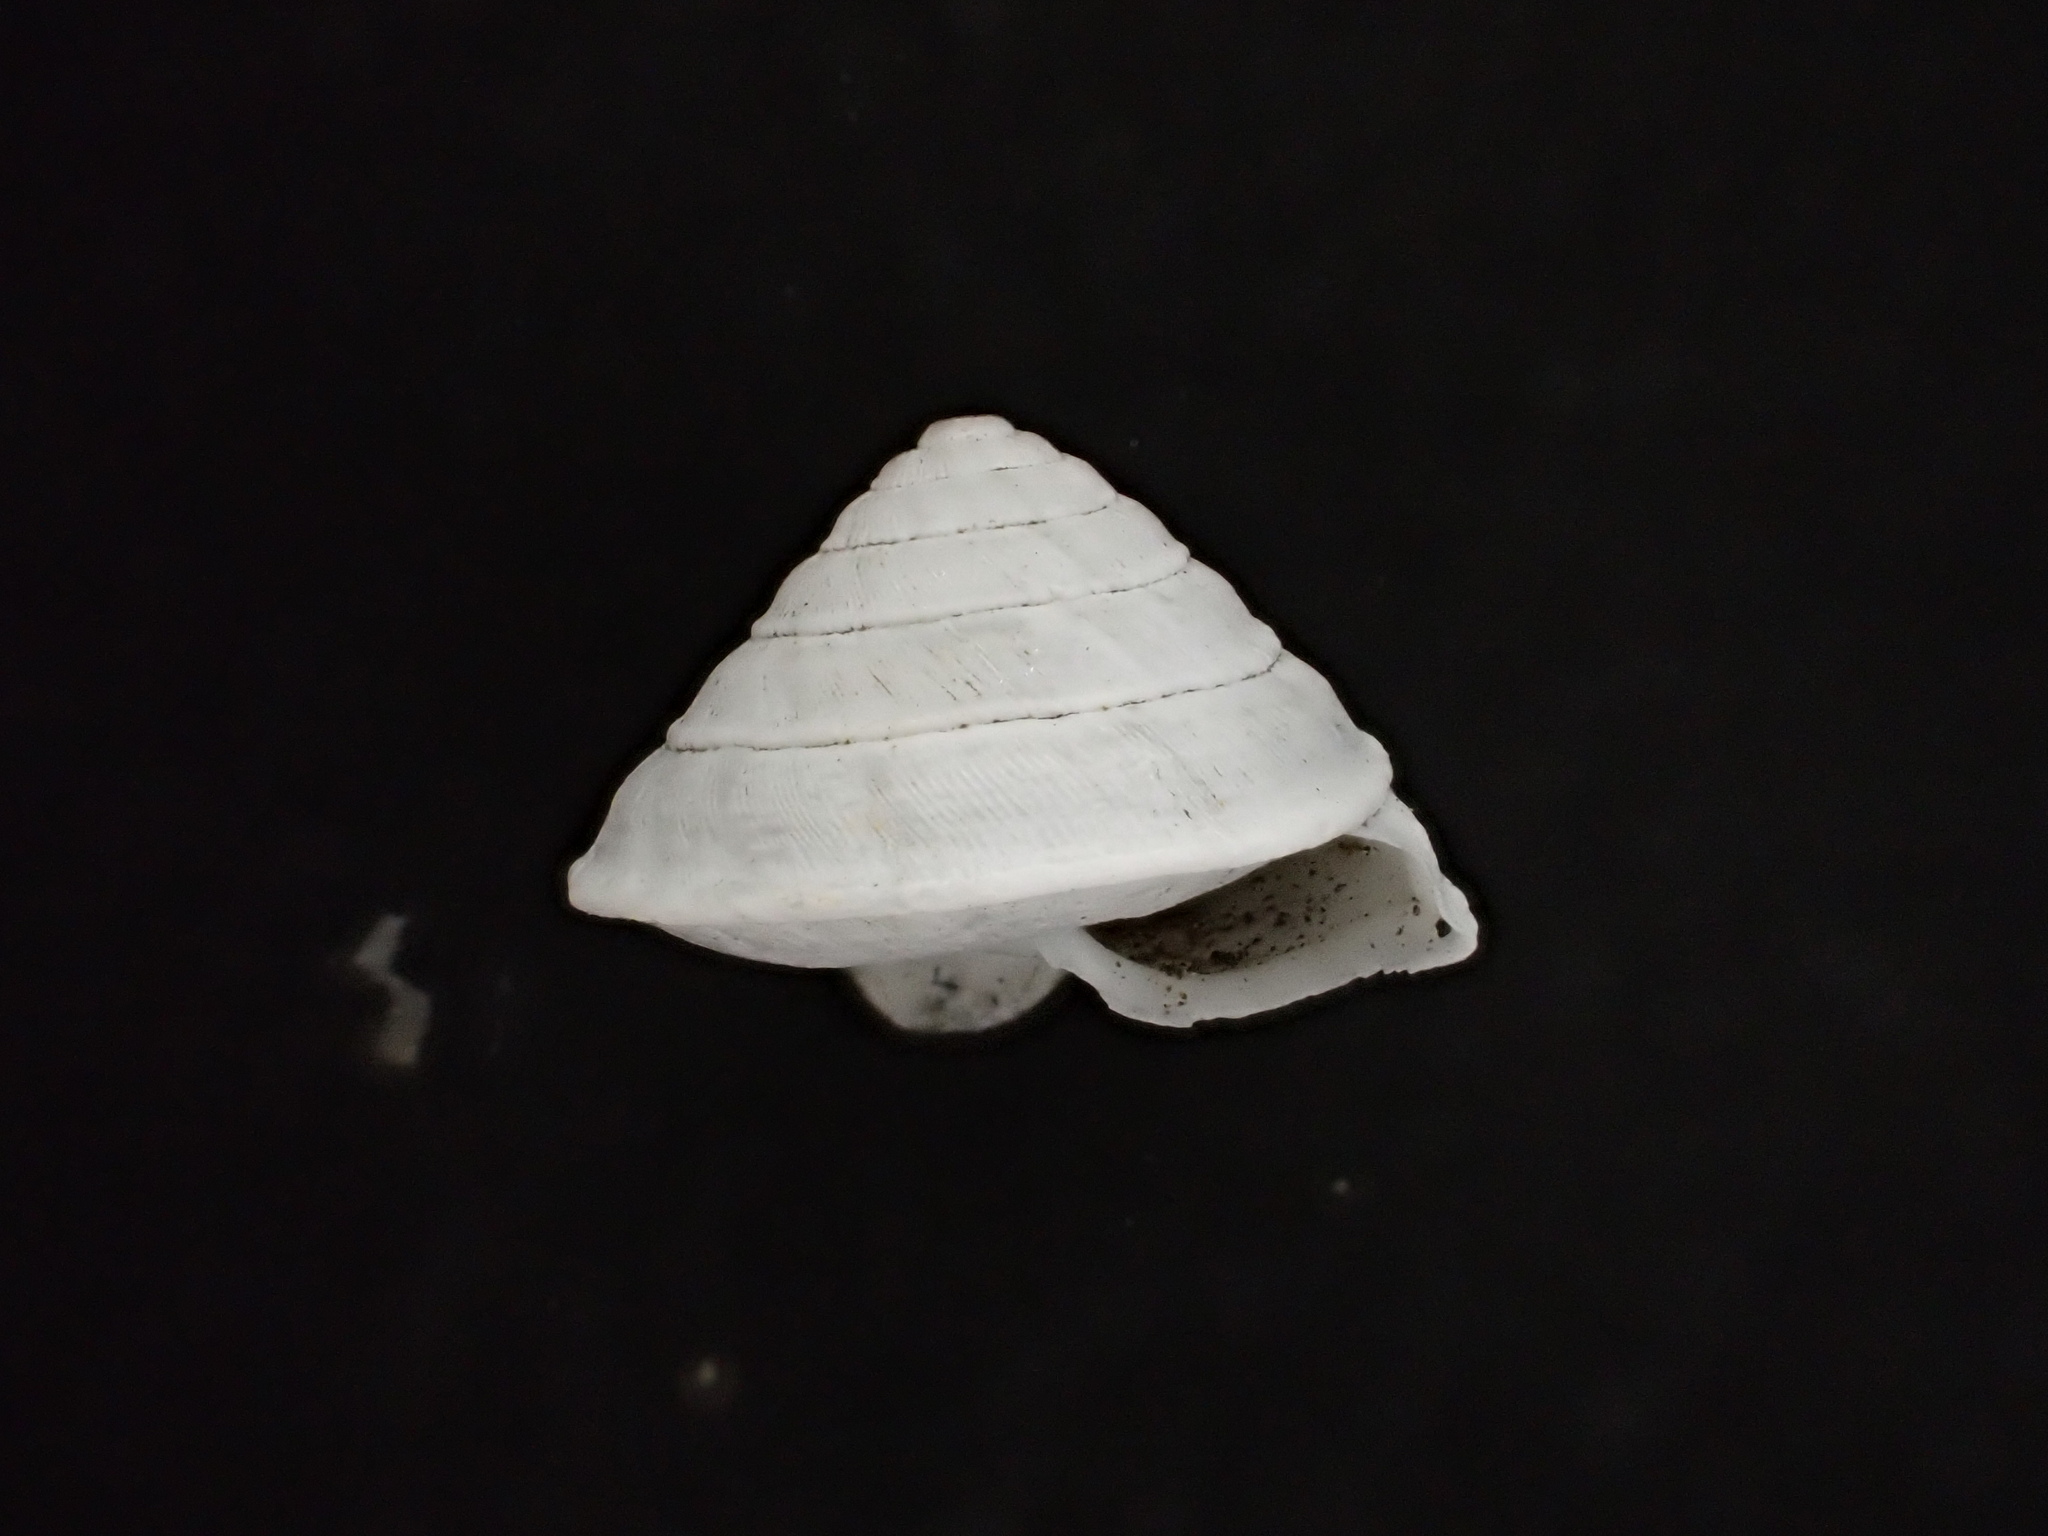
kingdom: Animalia
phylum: Mollusca
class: Gastropoda
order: Stylommatophora
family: Geomitridae
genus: Trochoidea
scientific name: Trochoidea elegans
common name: Elegant helicellid
